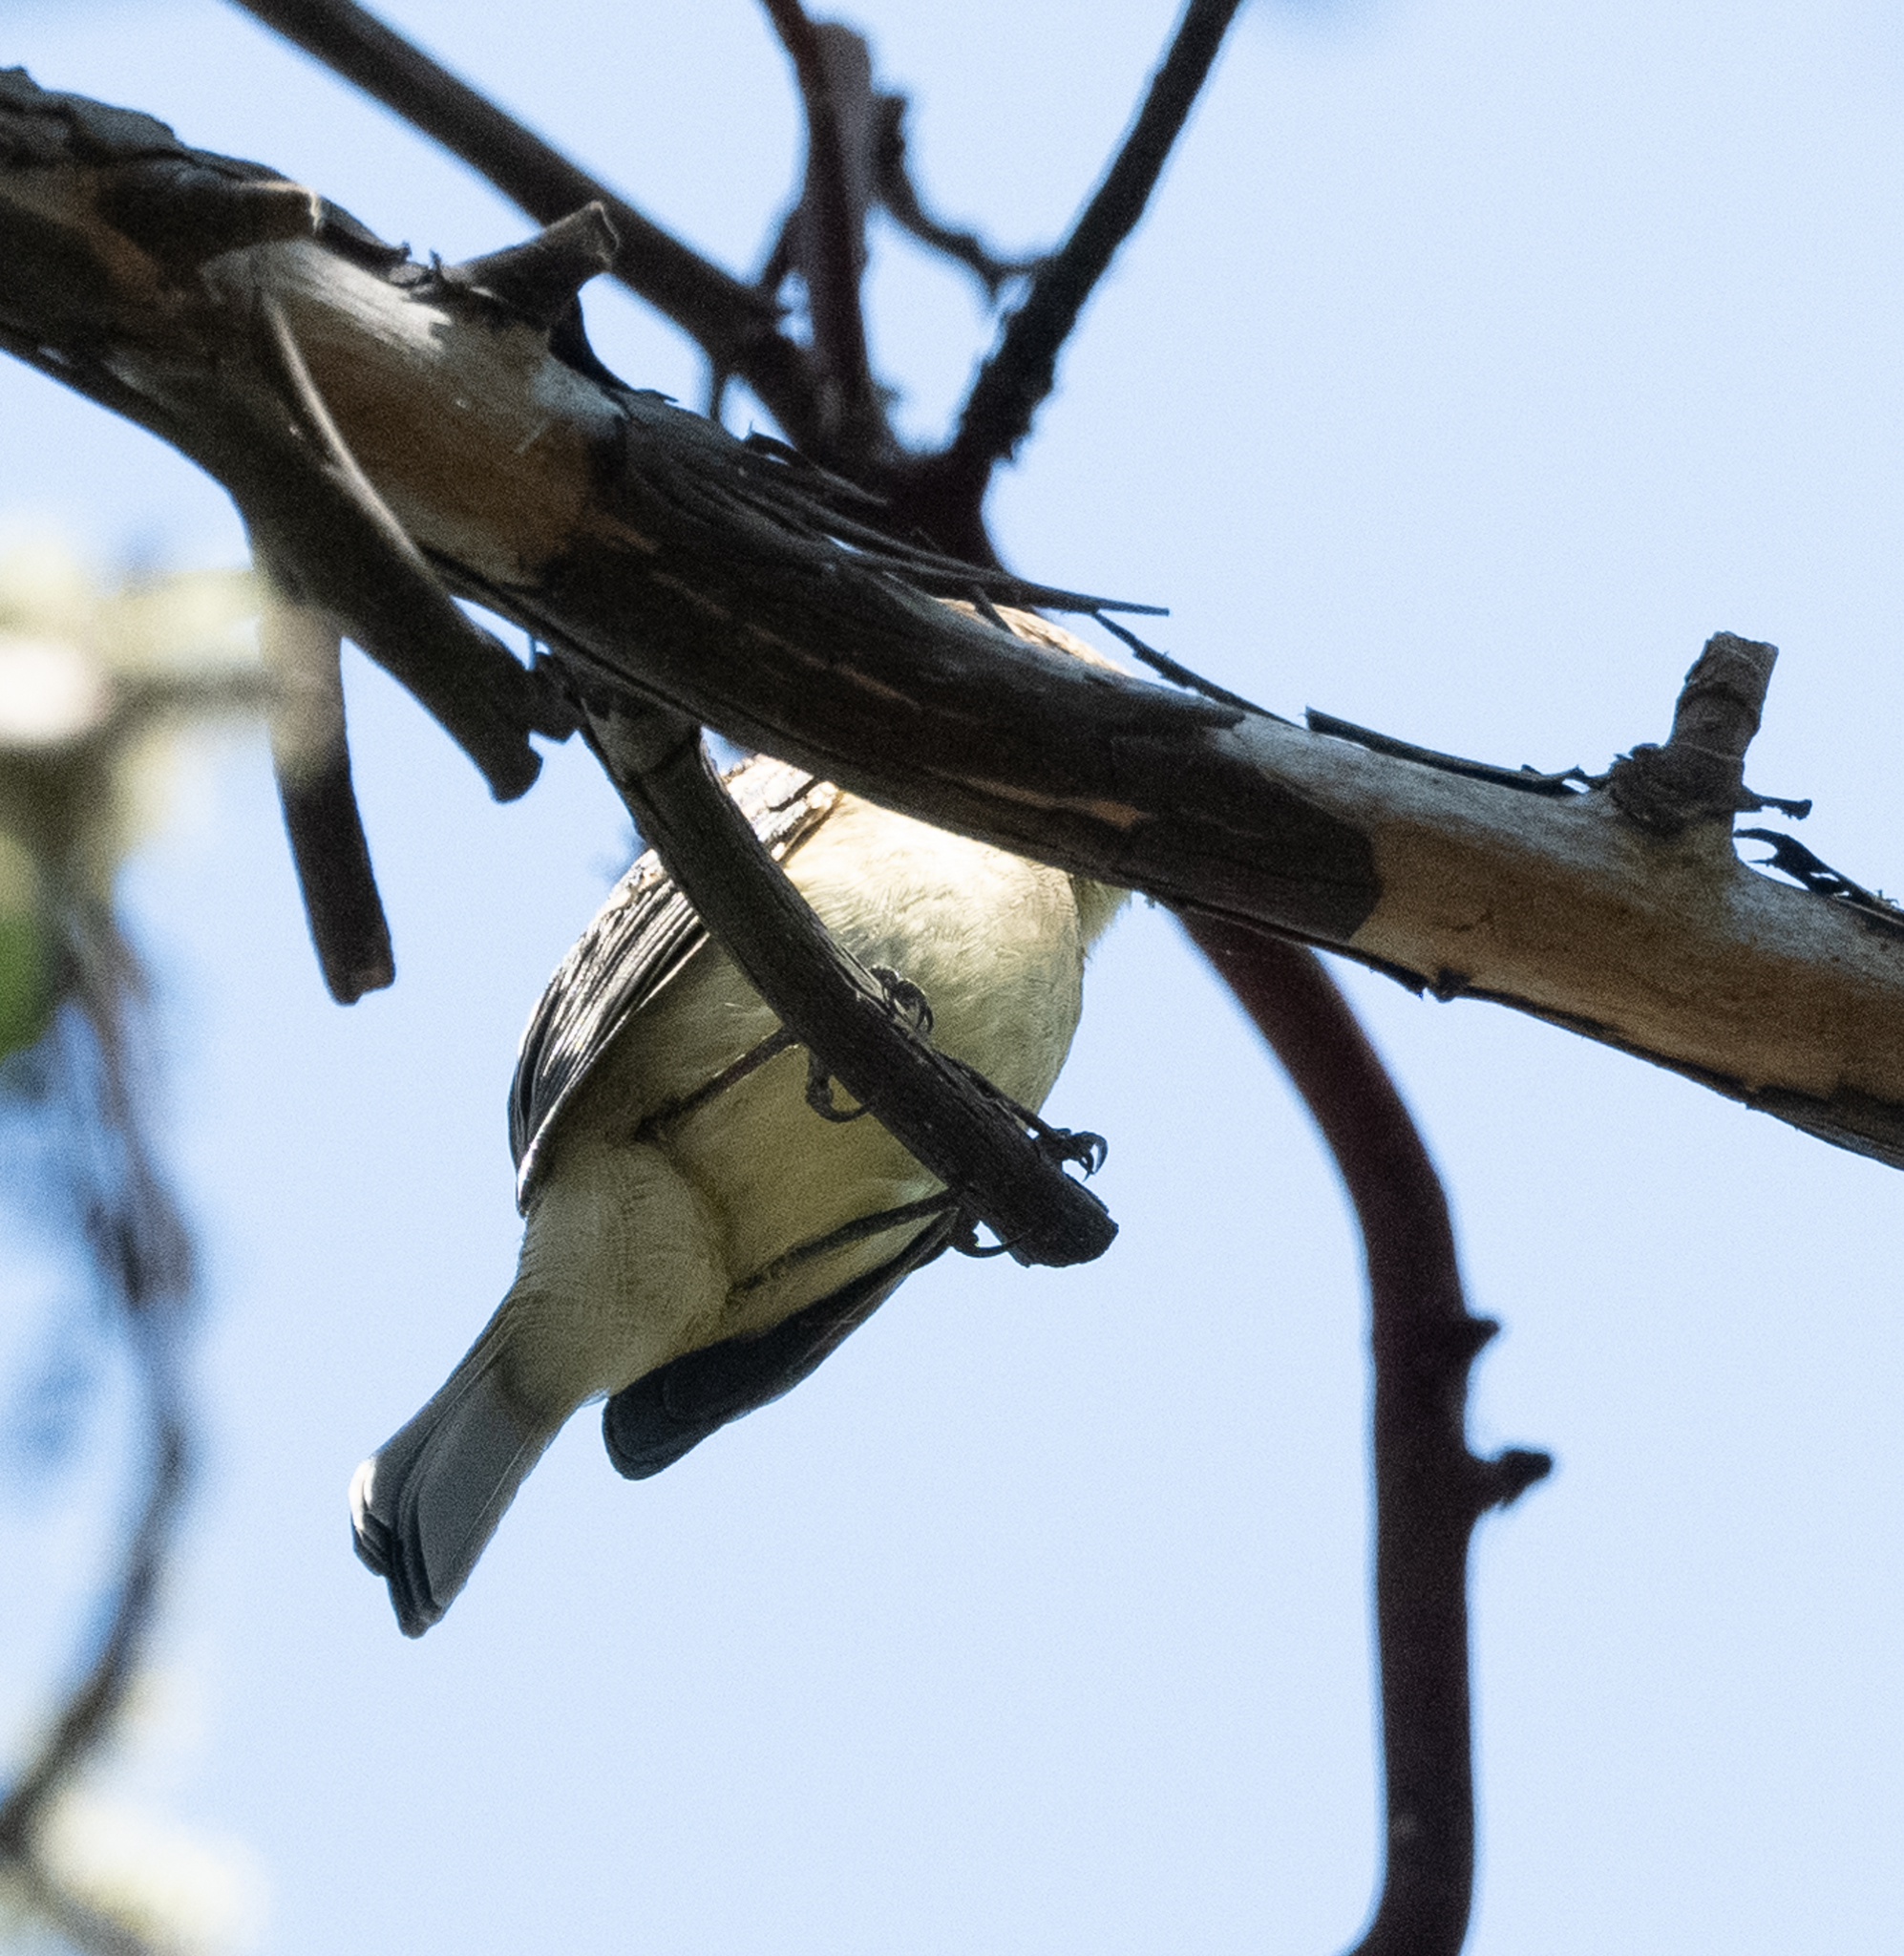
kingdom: Animalia
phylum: Chordata
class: Aves
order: Passeriformes
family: Vireonidae
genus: Vireo
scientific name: Vireo huttoni
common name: Hutton's vireo
